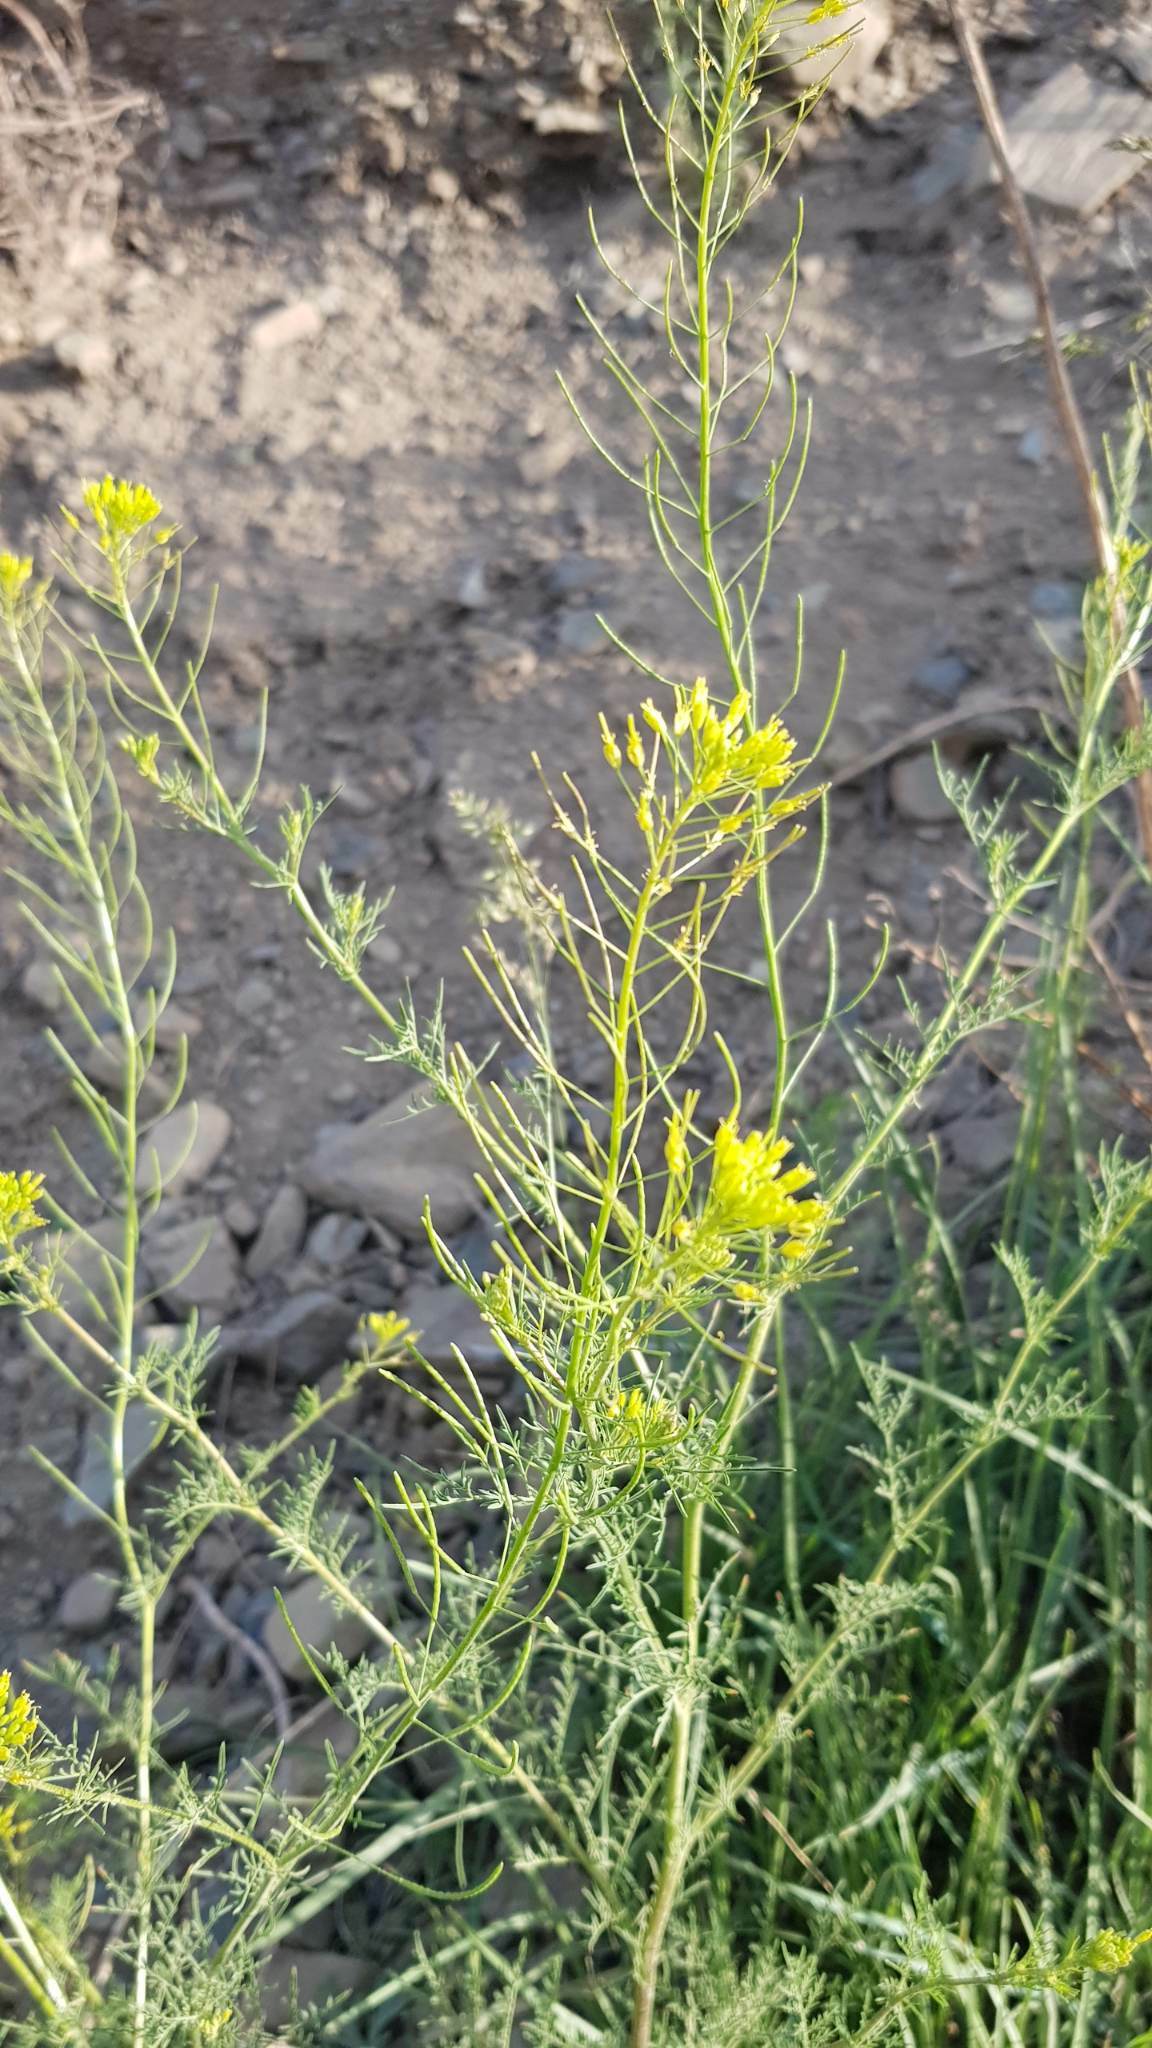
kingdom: Plantae
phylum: Tracheophyta
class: Magnoliopsida
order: Brassicales
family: Brassicaceae
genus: Descurainia
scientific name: Descurainia sophia
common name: Flixweed
